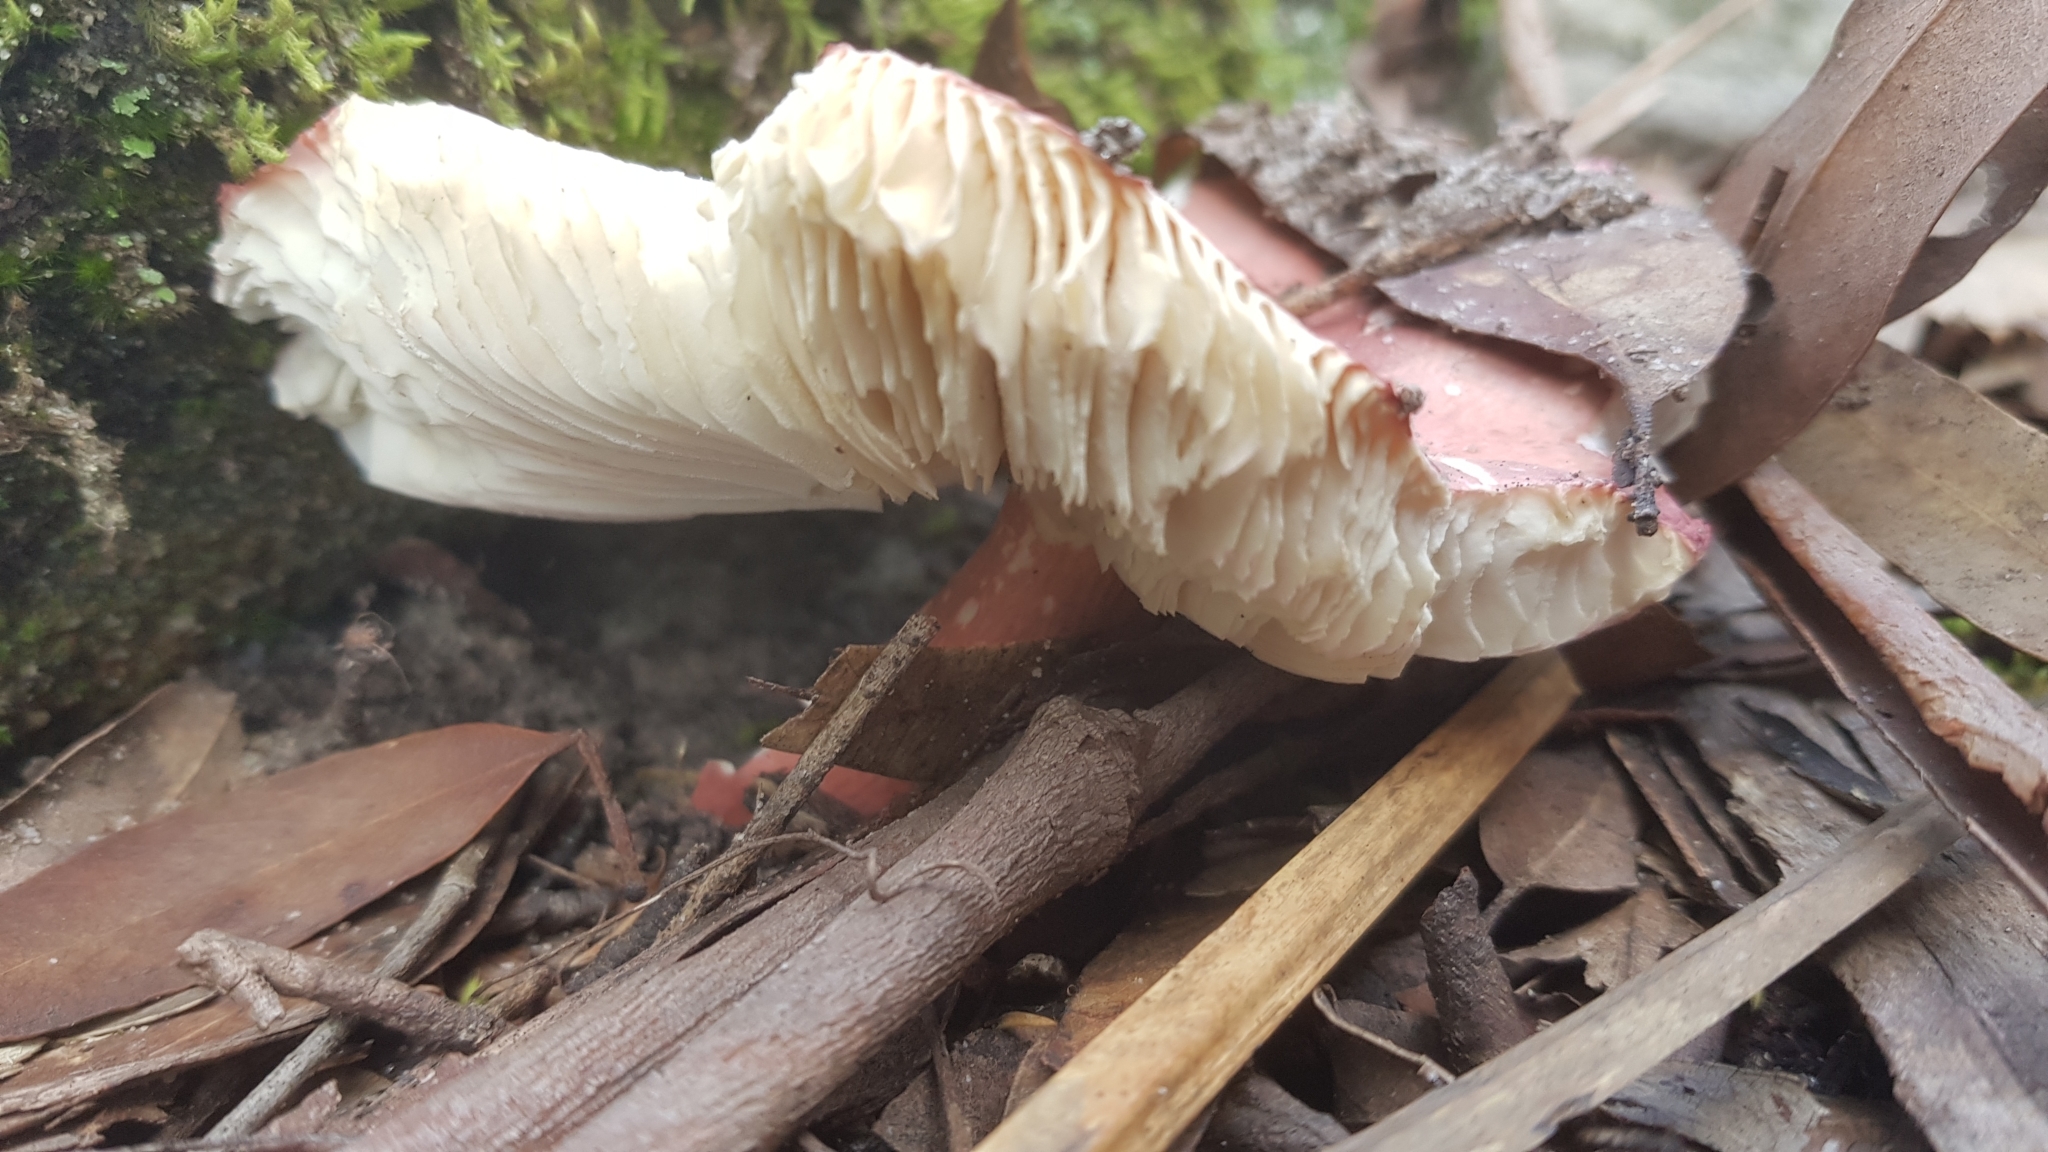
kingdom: Fungi
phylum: Basidiomycota
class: Agaricomycetes
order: Russulales
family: Russulaceae
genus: Russula
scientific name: Russula lenkunya
